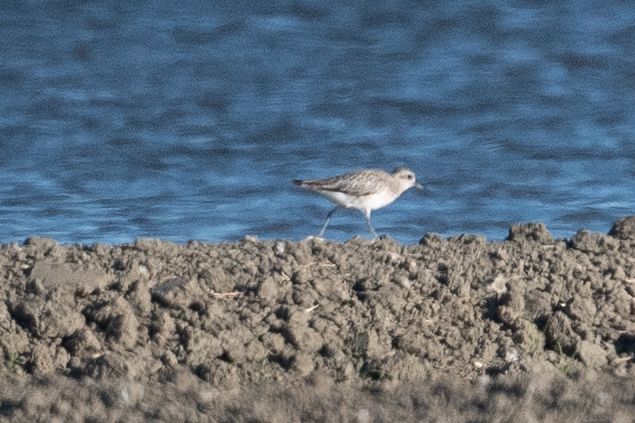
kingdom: Animalia
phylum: Chordata
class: Aves
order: Charadriiformes
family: Charadriidae
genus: Pluvialis
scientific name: Pluvialis squatarola
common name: Grey plover
